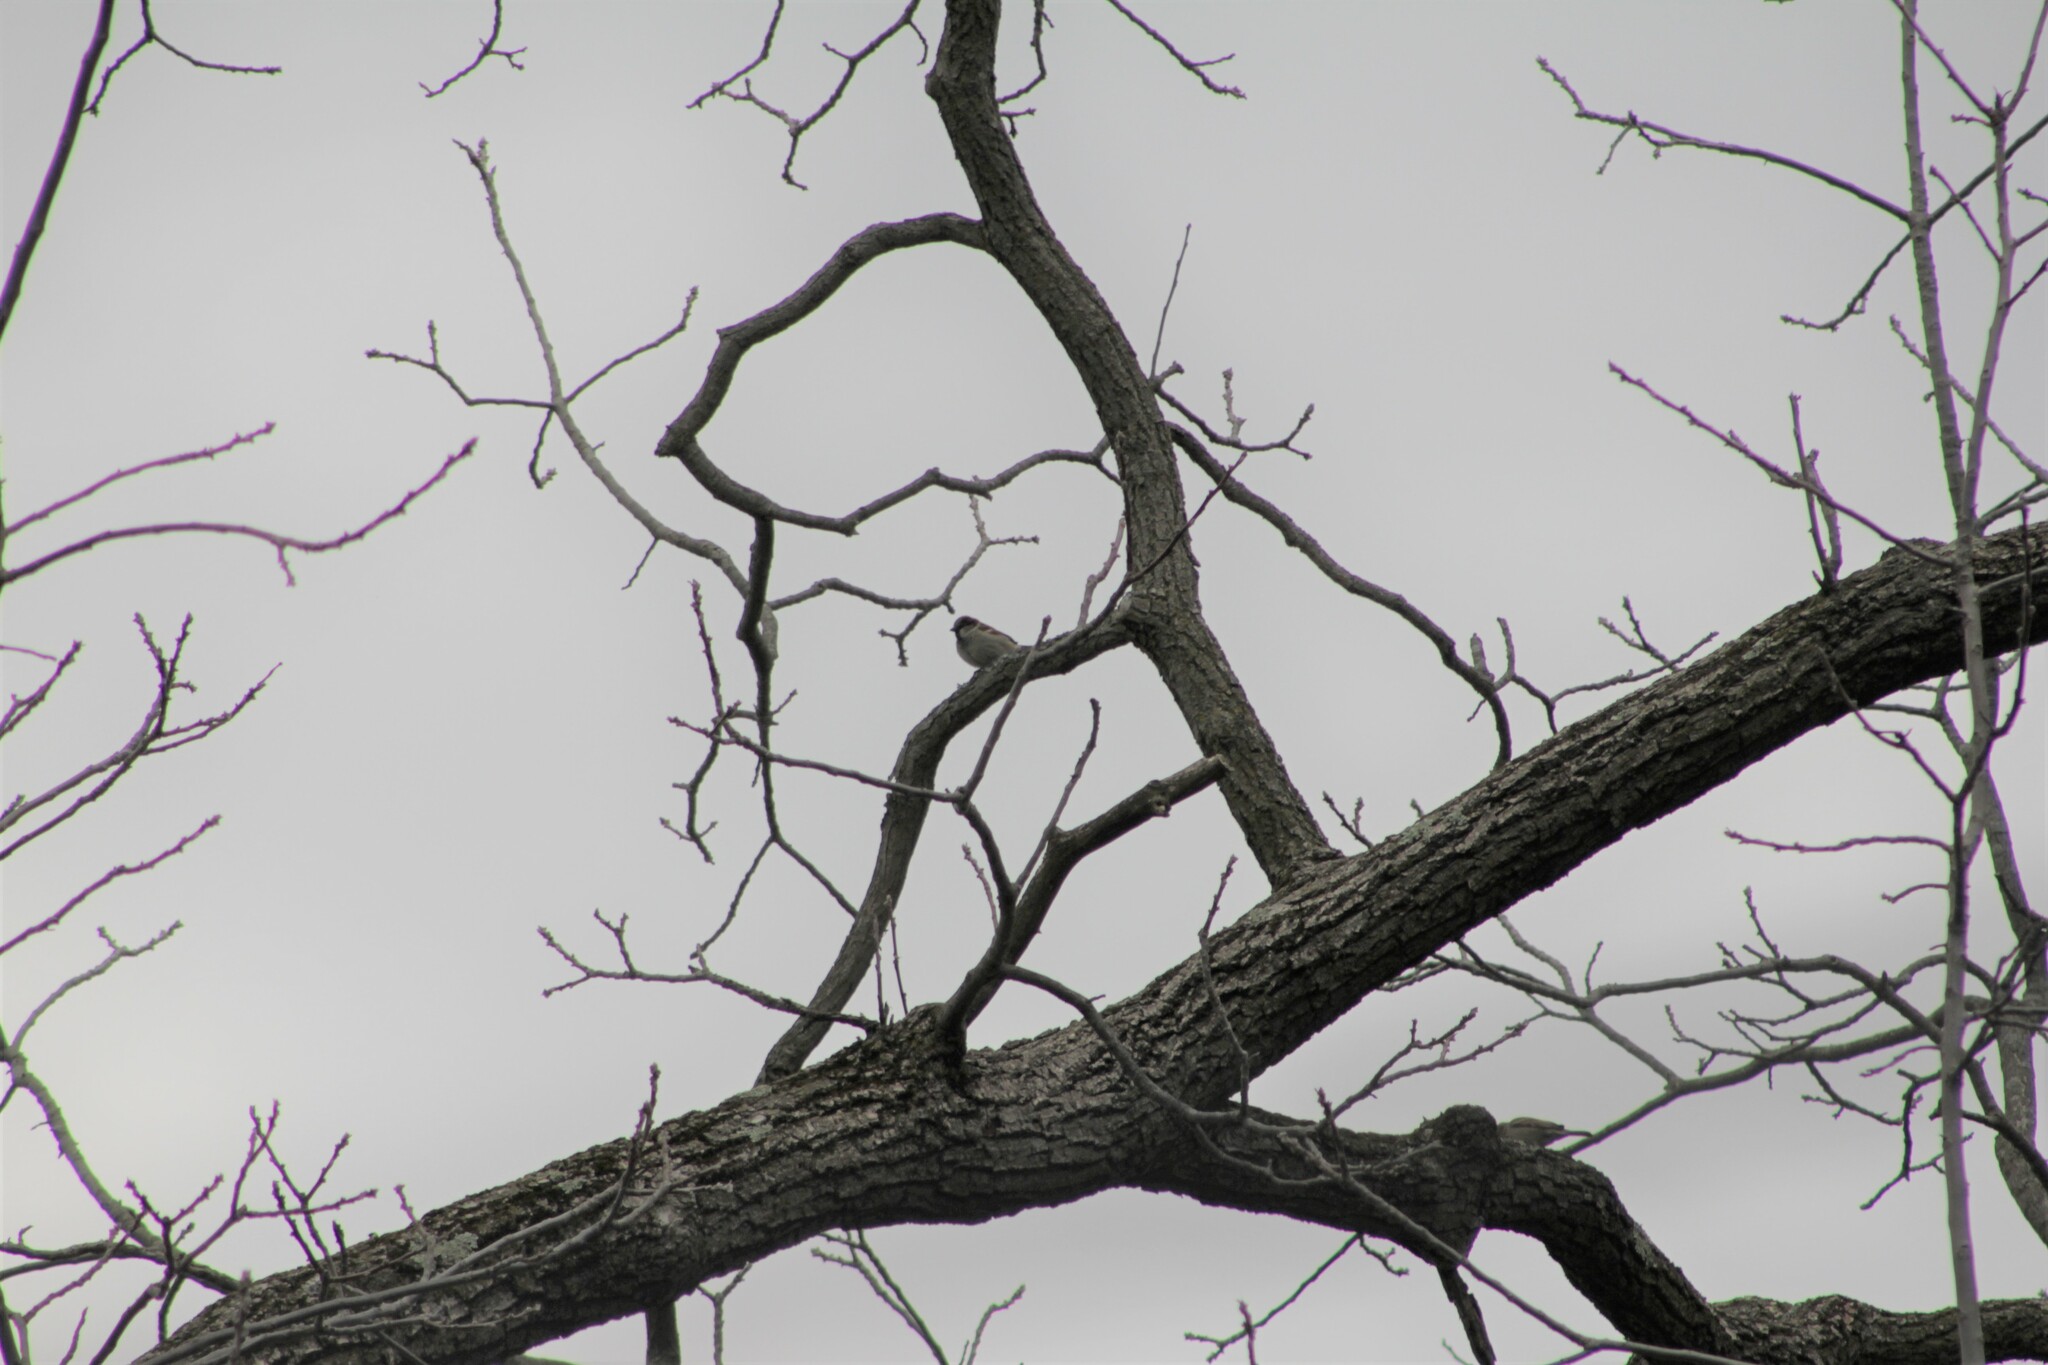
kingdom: Animalia
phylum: Chordata
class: Aves
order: Passeriformes
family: Passeridae
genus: Passer
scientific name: Passer domesticus
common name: House sparrow
